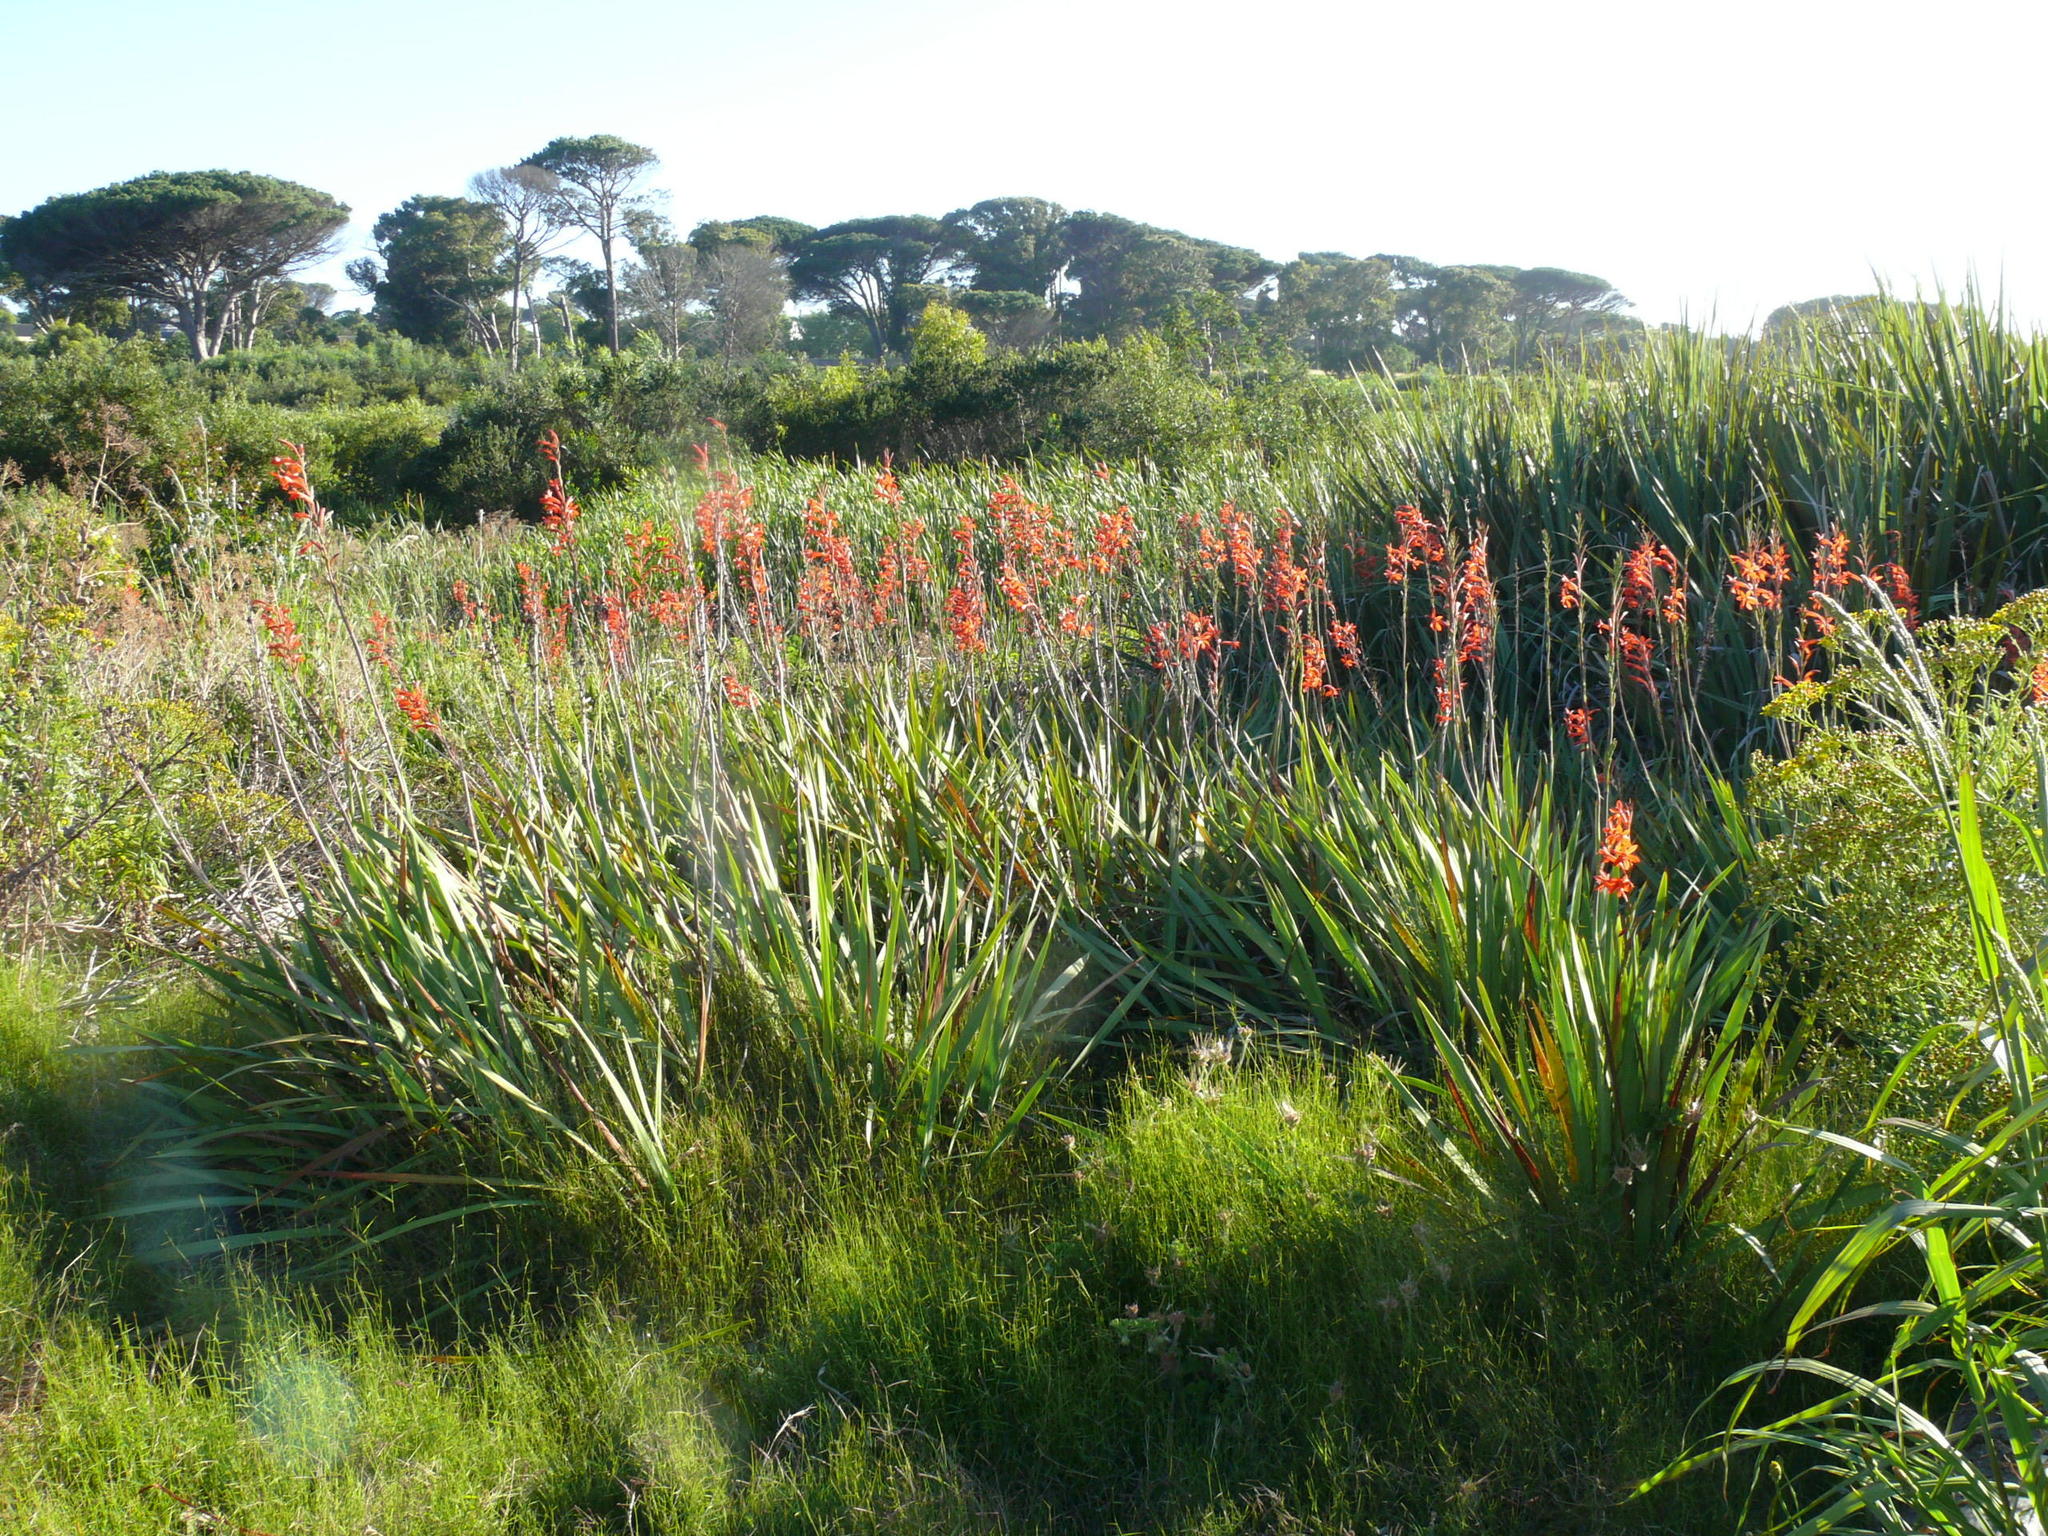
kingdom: Plantae
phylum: Tracheophyta
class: Liliopsida
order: Asparagales
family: Iridaceae
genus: Watsonia
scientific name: Watsonia angusta
